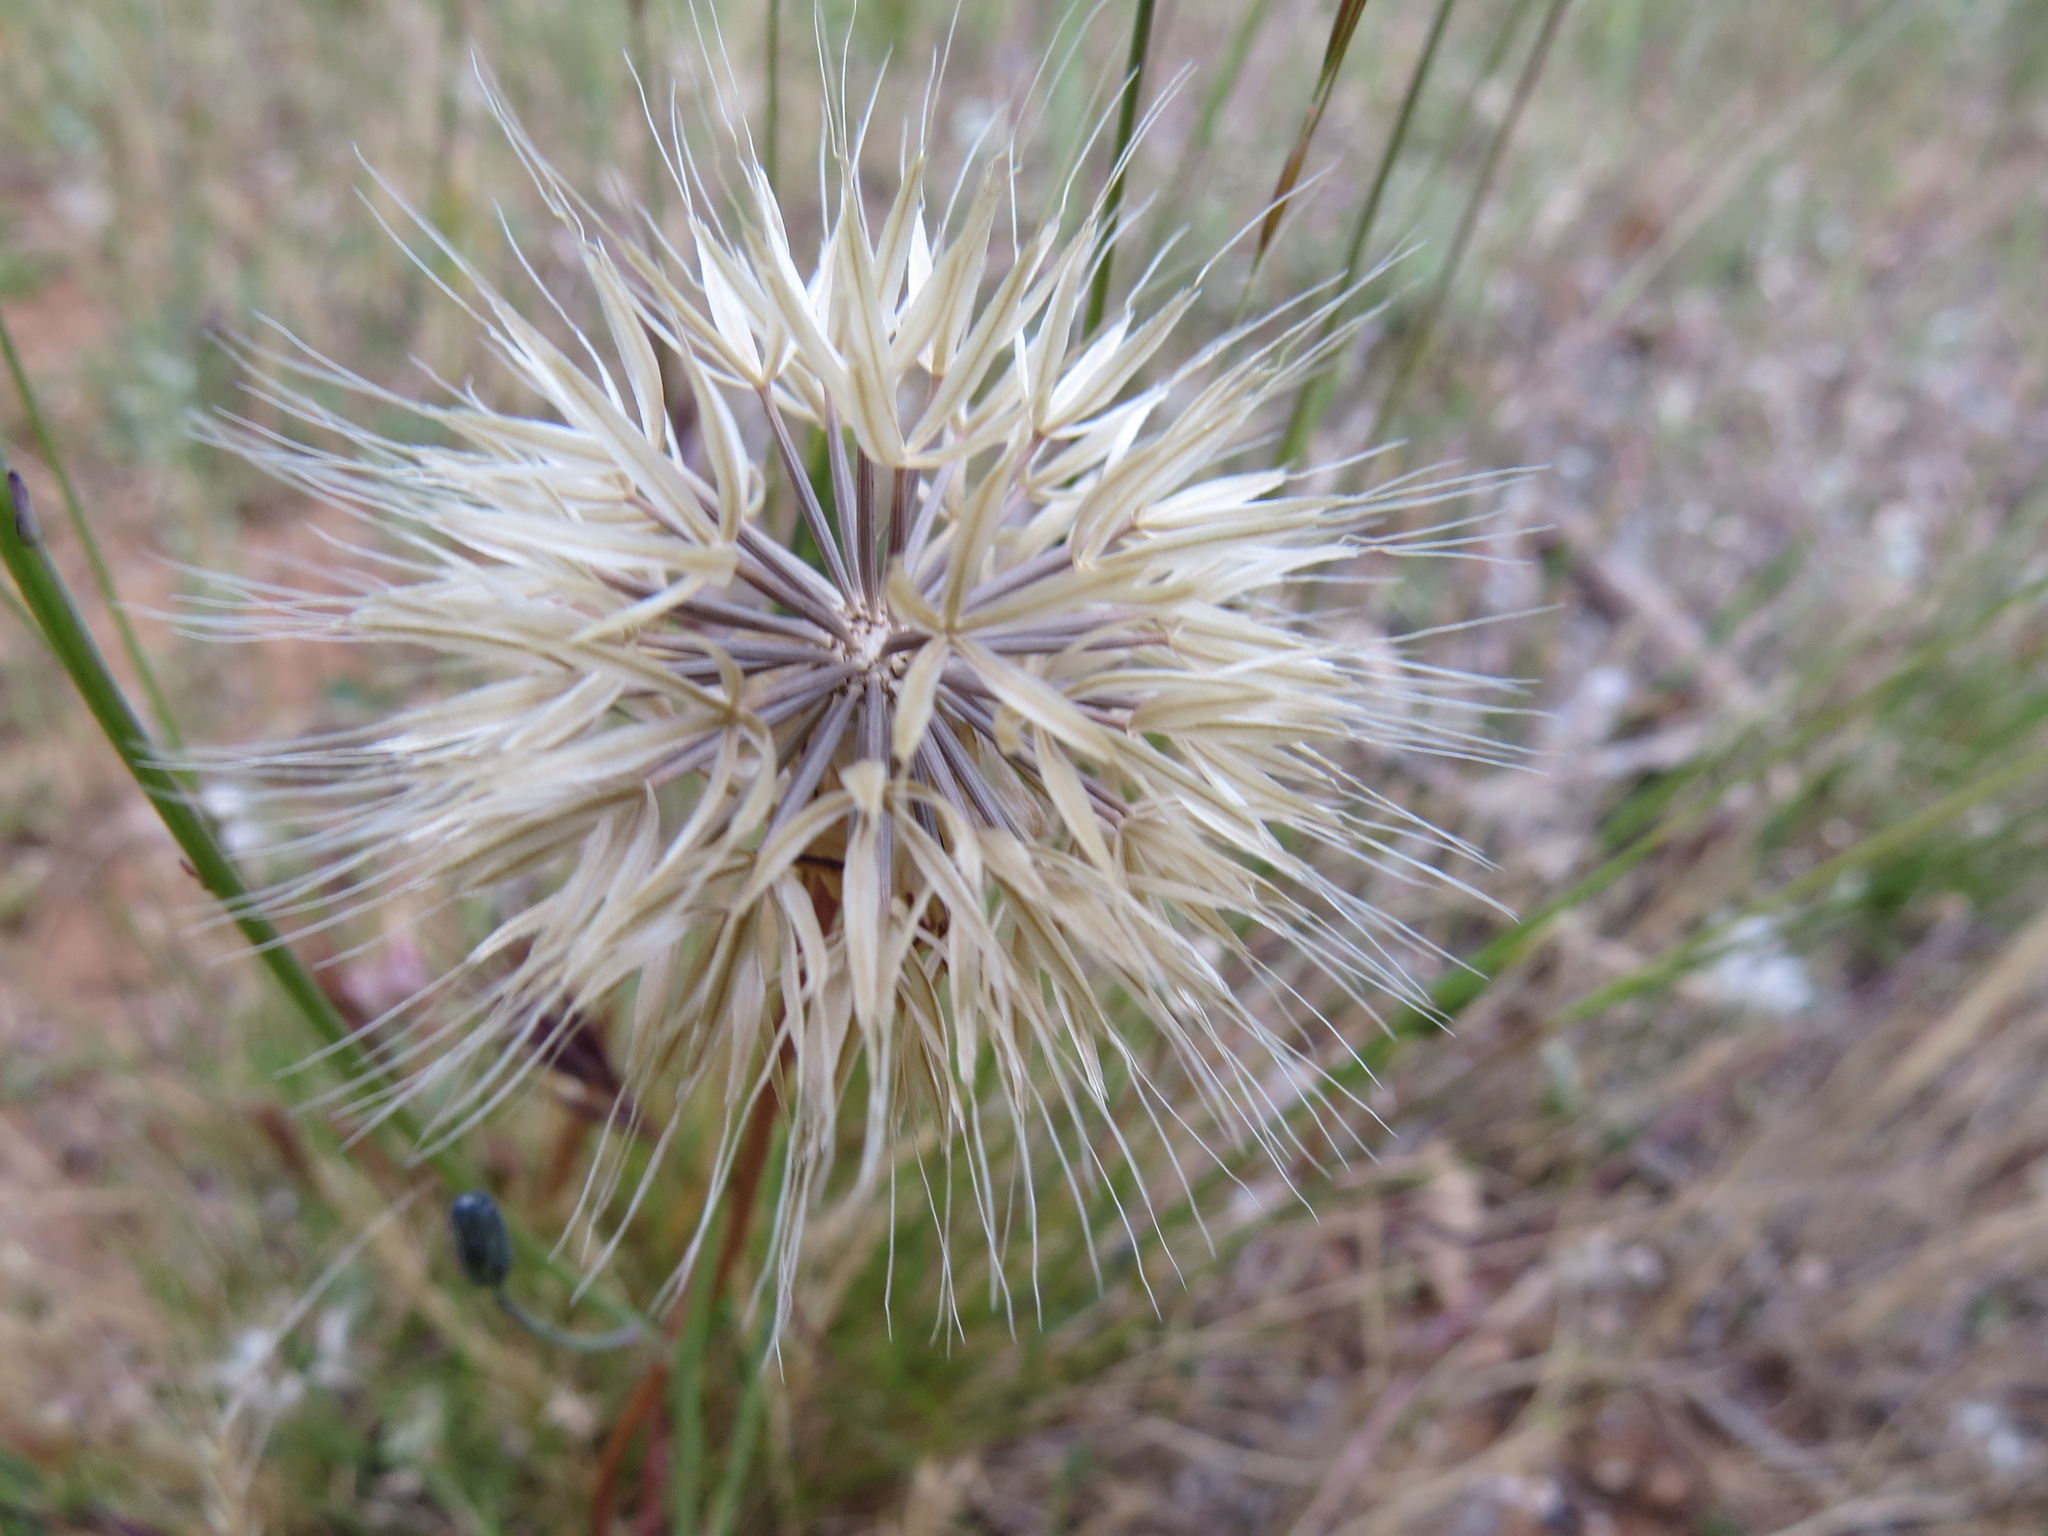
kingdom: Plantae
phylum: Tracheophyta
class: Magnoliopsida
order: Asterales
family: Asteraceae
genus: Microseris
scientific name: Microseris lindleyi
